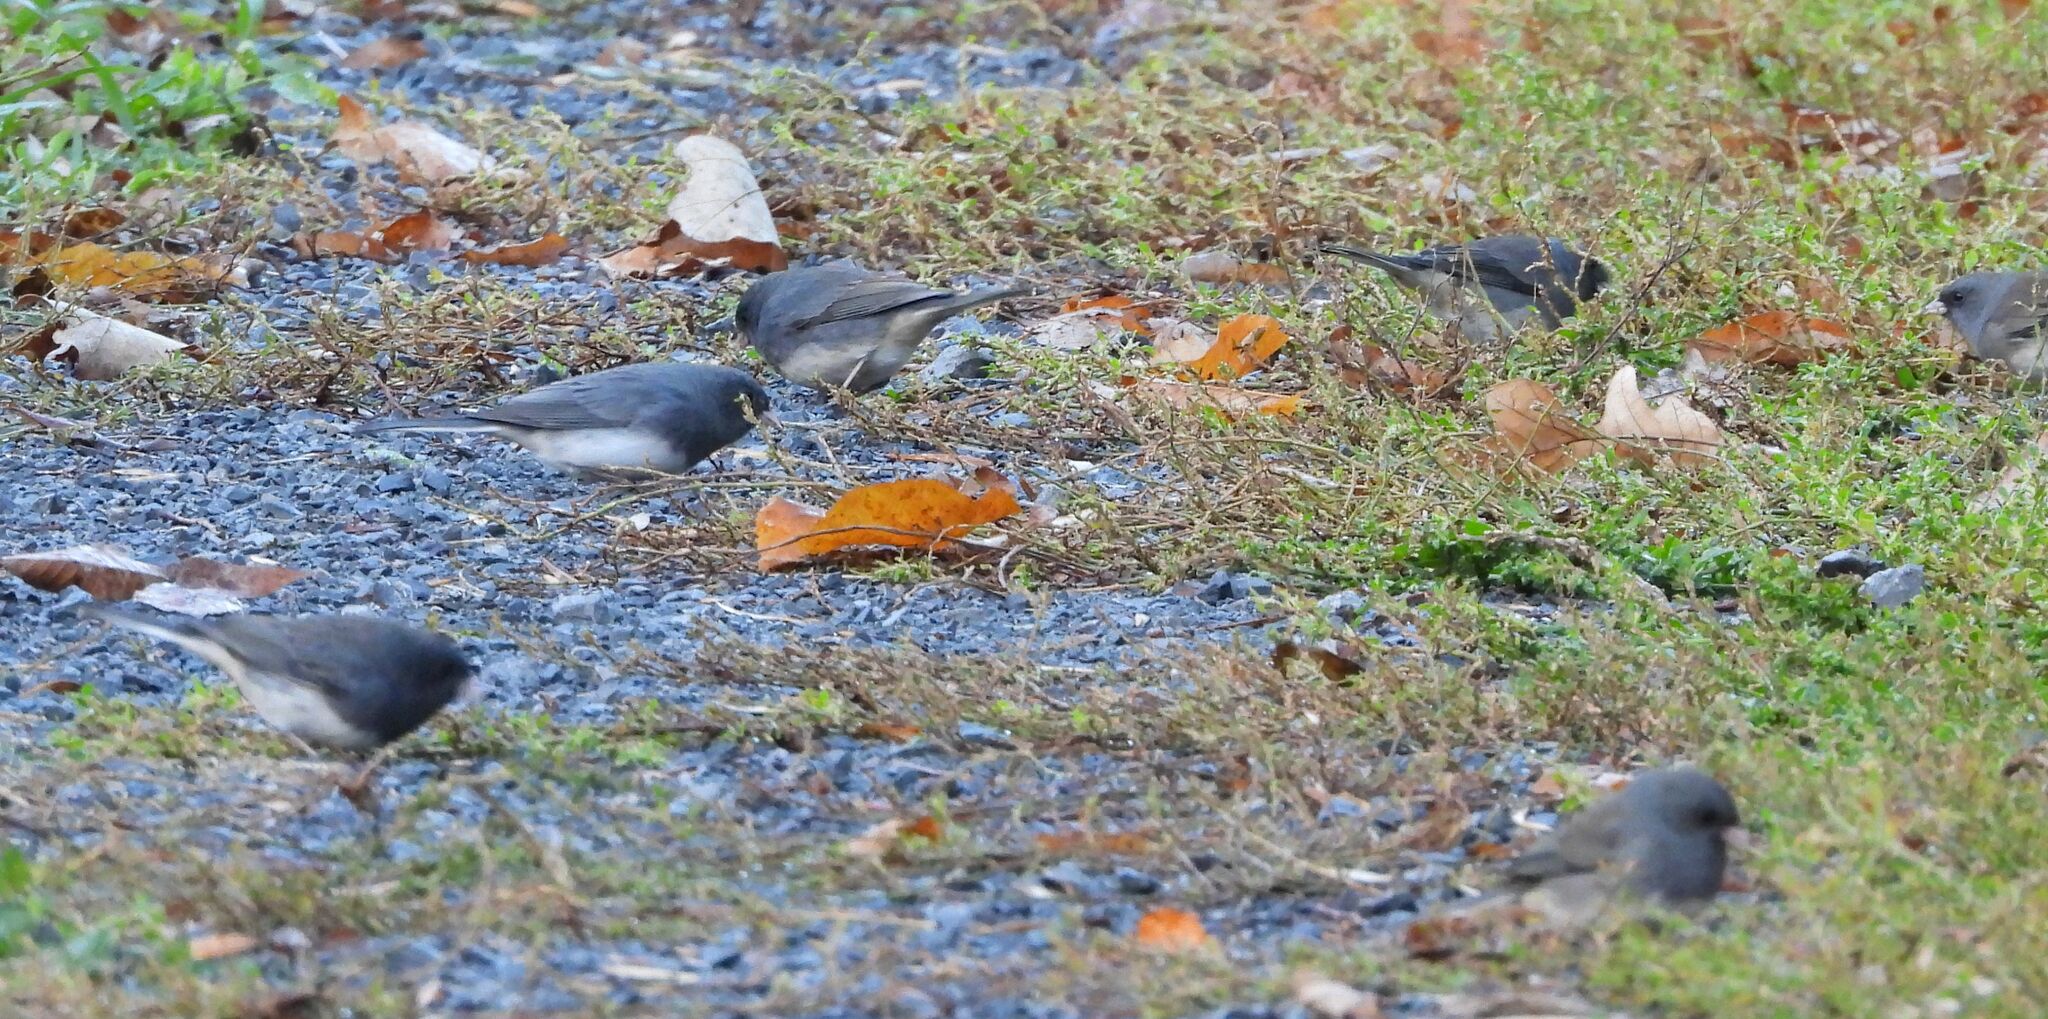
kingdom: Animalia
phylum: Chordata
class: Aves
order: Passeriformes
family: Passerellidae
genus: Junco
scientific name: Junco hyemalis
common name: Dark-eyed junco
